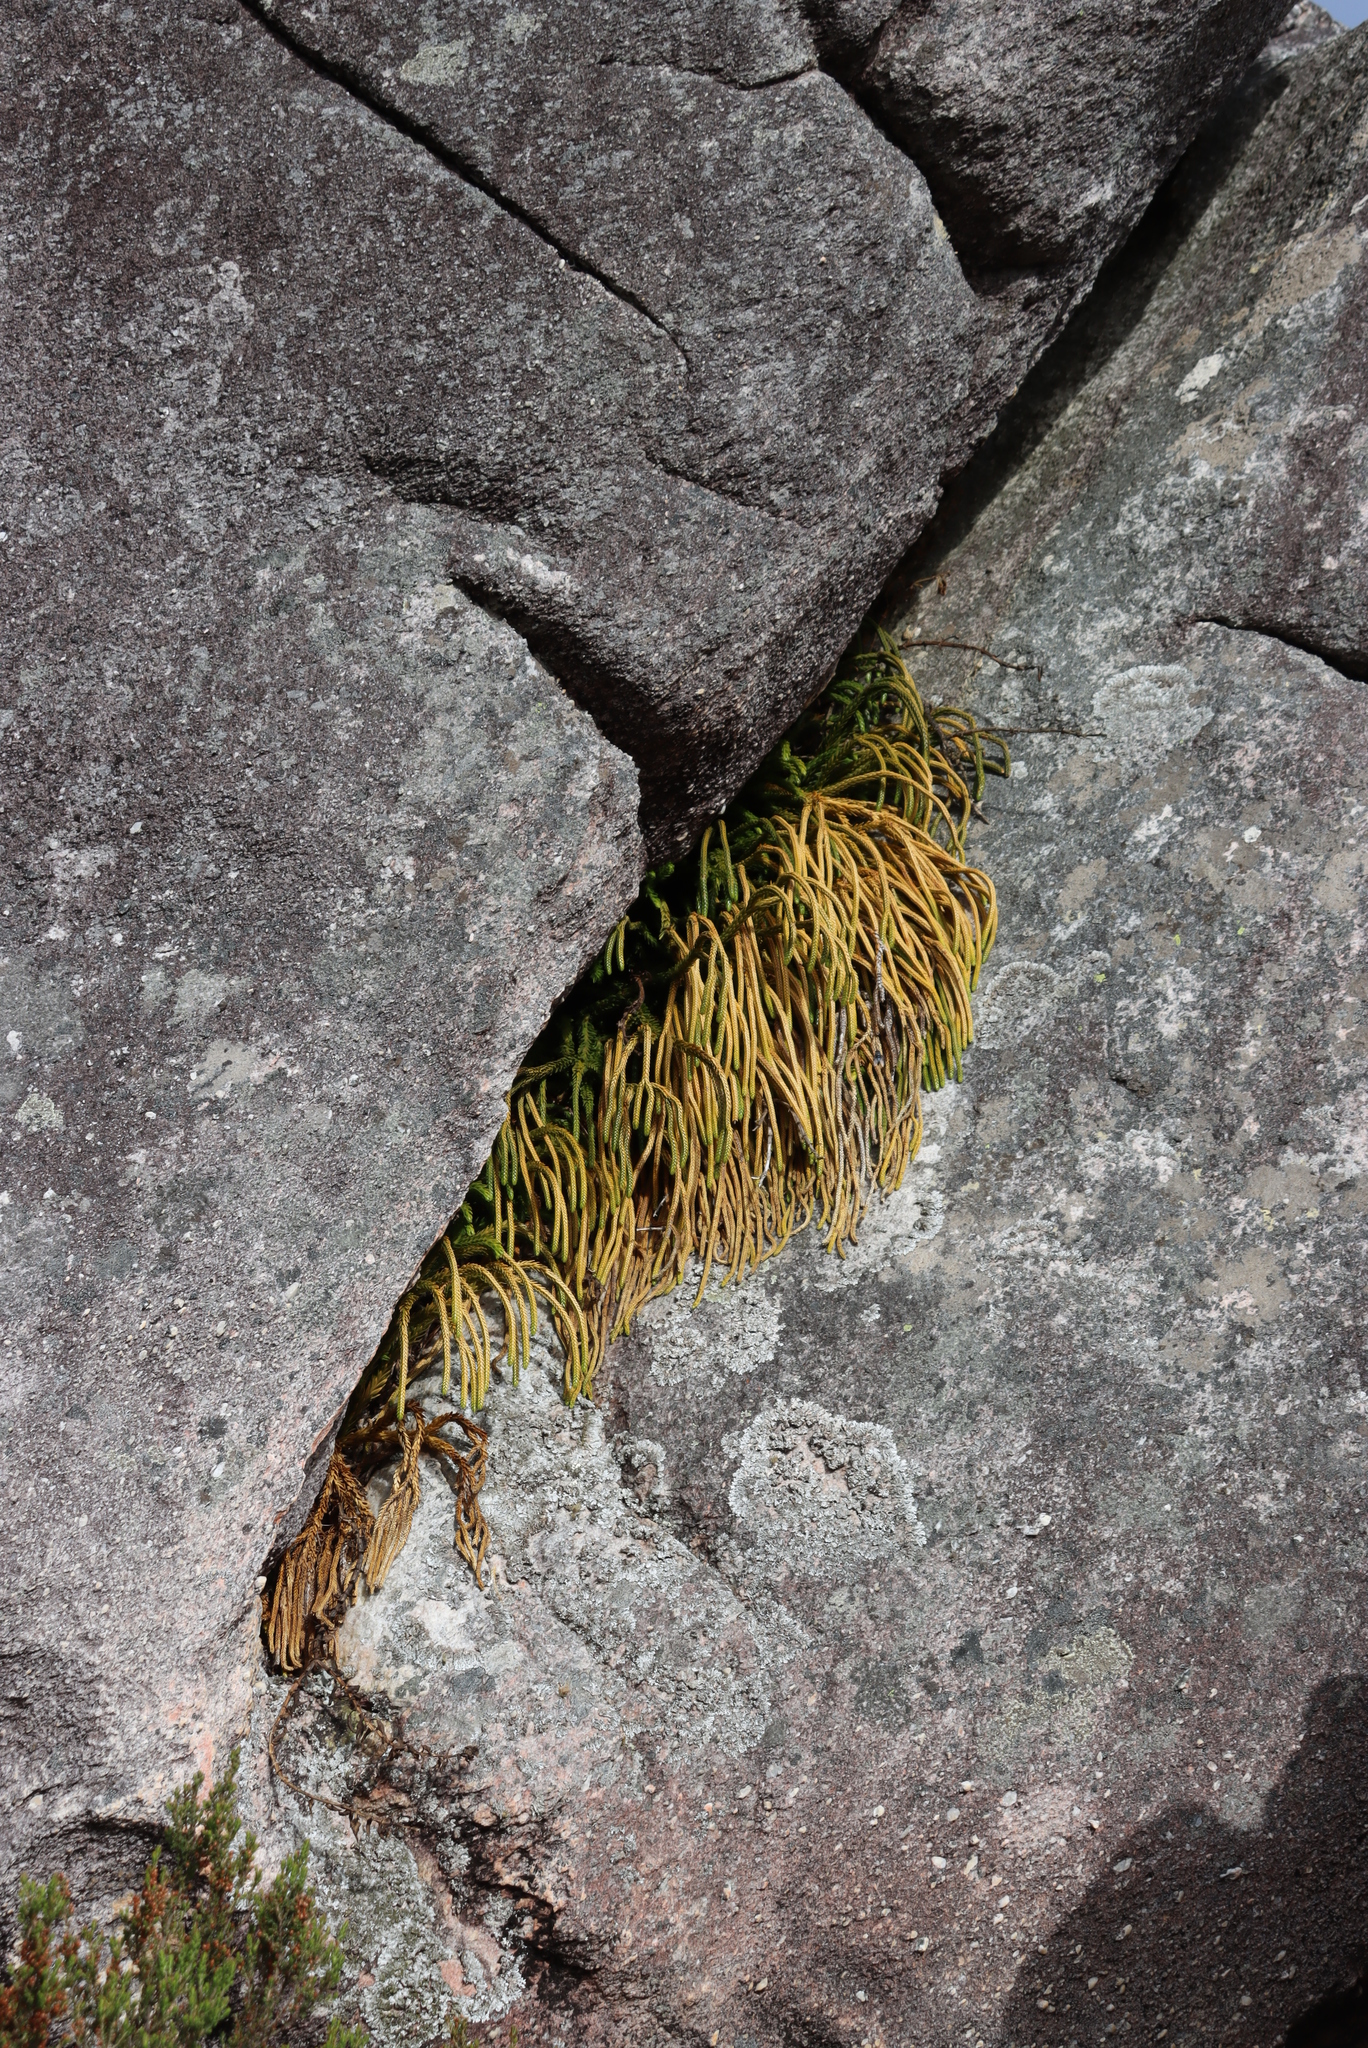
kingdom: Plantae
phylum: Tracheophyta
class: Lycopodiopsida
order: Lycopodiales
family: Lycopodiaceae
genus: Phlegmariurus
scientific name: Phlegmariurus gnidioides
